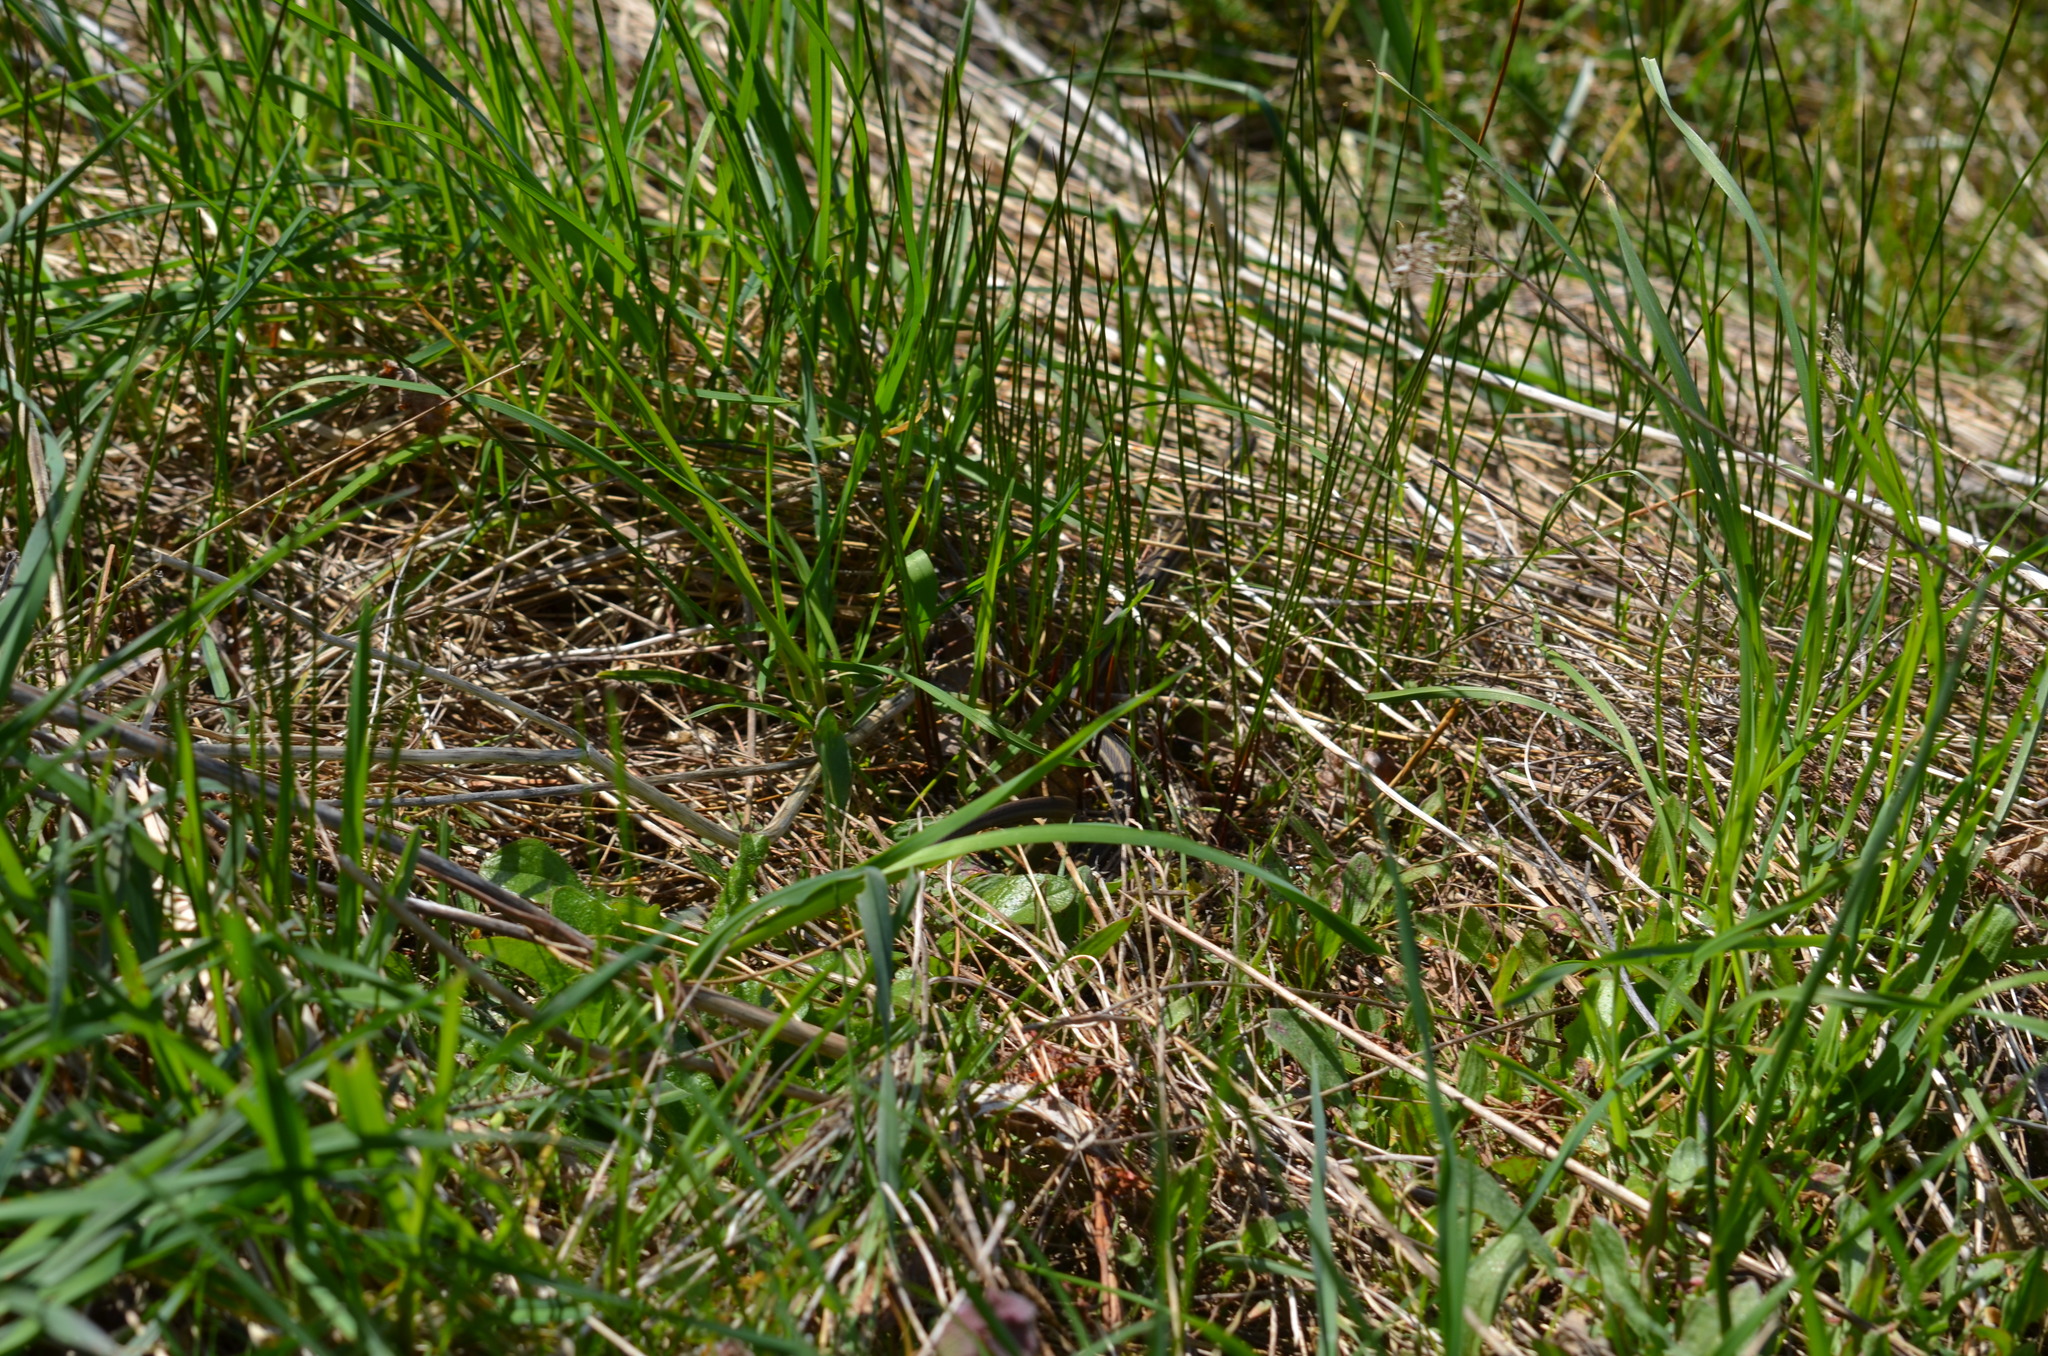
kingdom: Animalia
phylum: Chordata
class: Squamata
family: Colubridae
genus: Thamnophis
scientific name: Thamnophis ordinoides
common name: Northwestern garter snake
